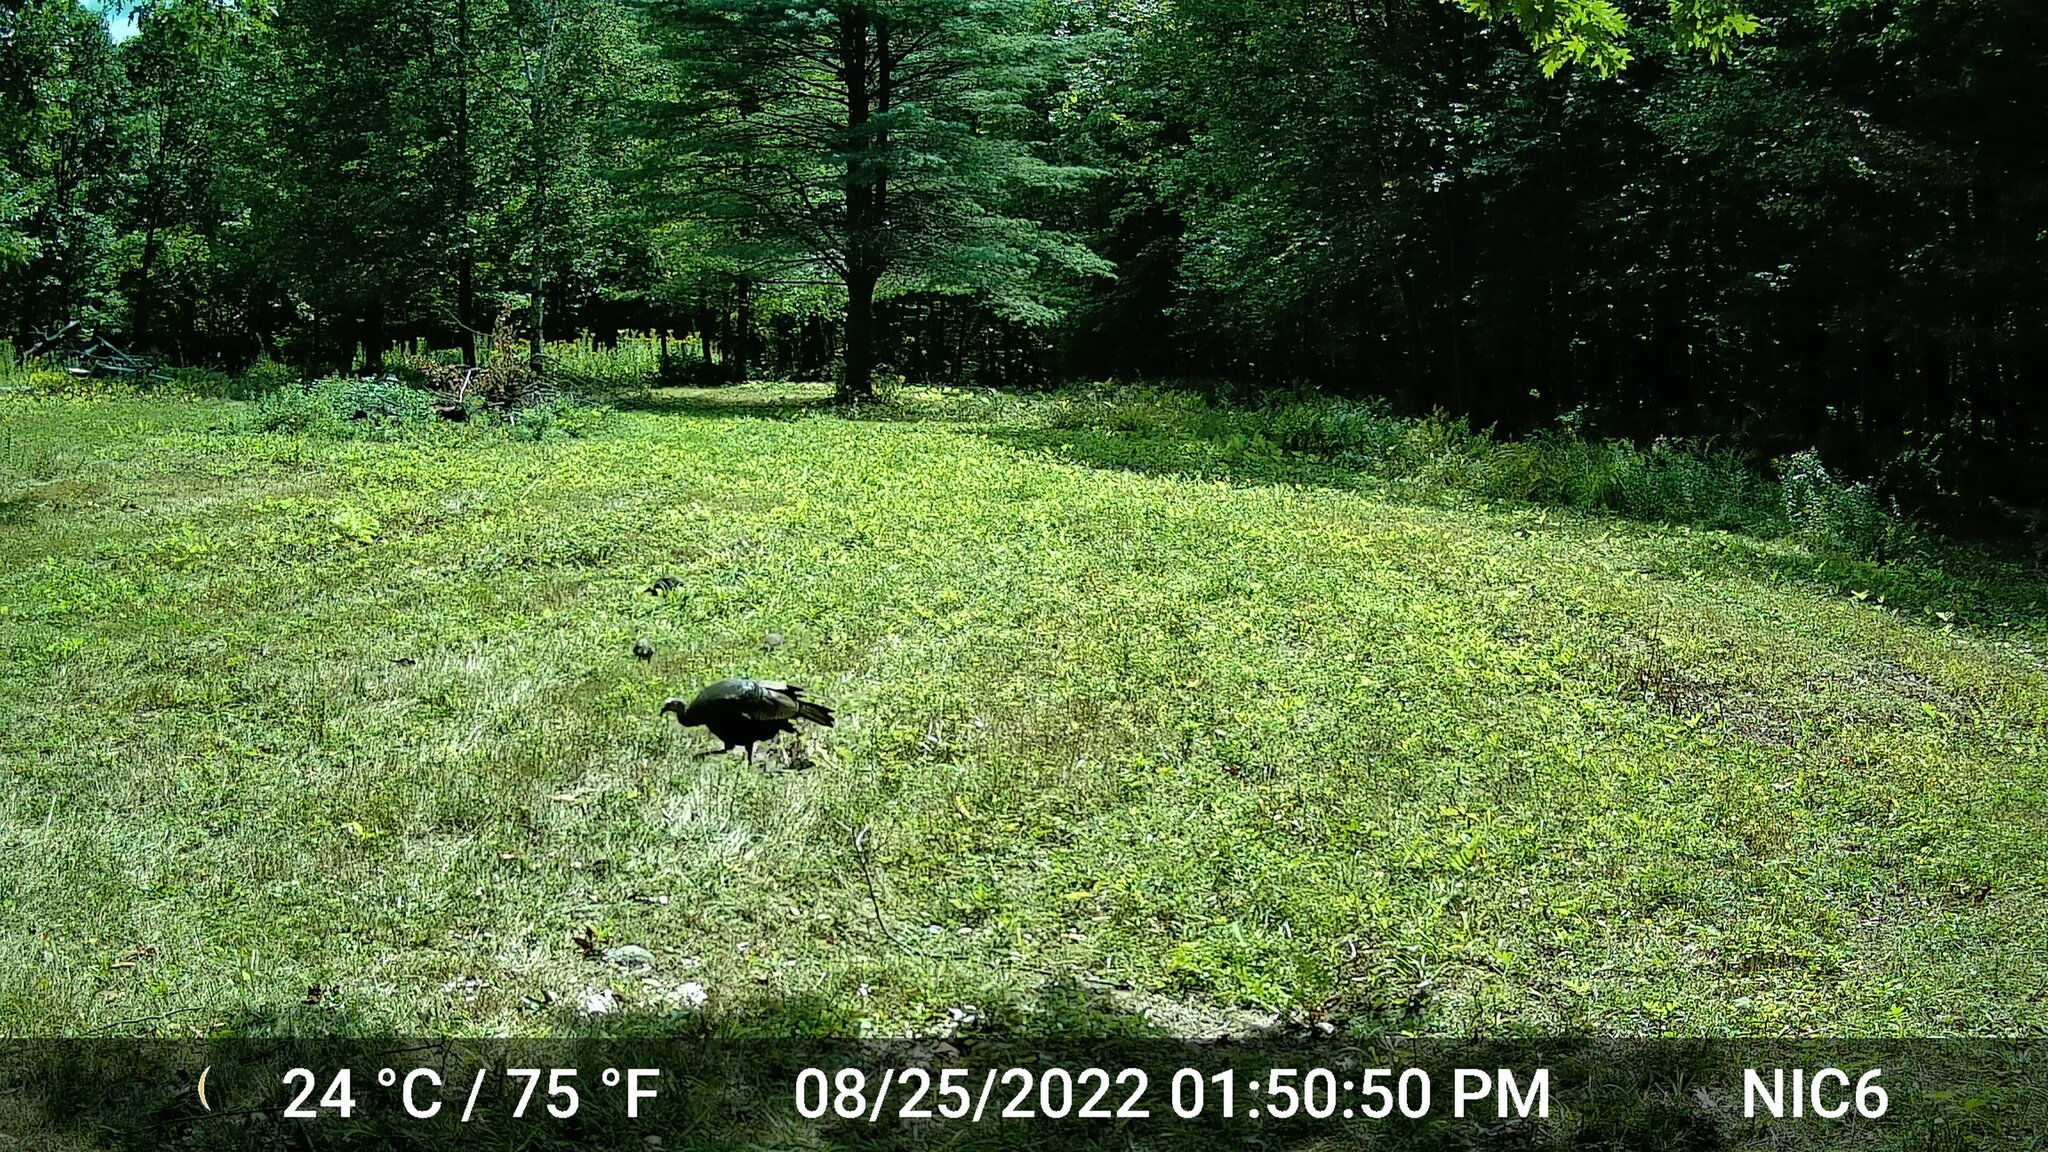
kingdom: Animalia
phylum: Chordata
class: Aves
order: Galliformes
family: Phasianidae
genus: Meleagris
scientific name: Meleagris gallopavo
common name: Wild turkey
